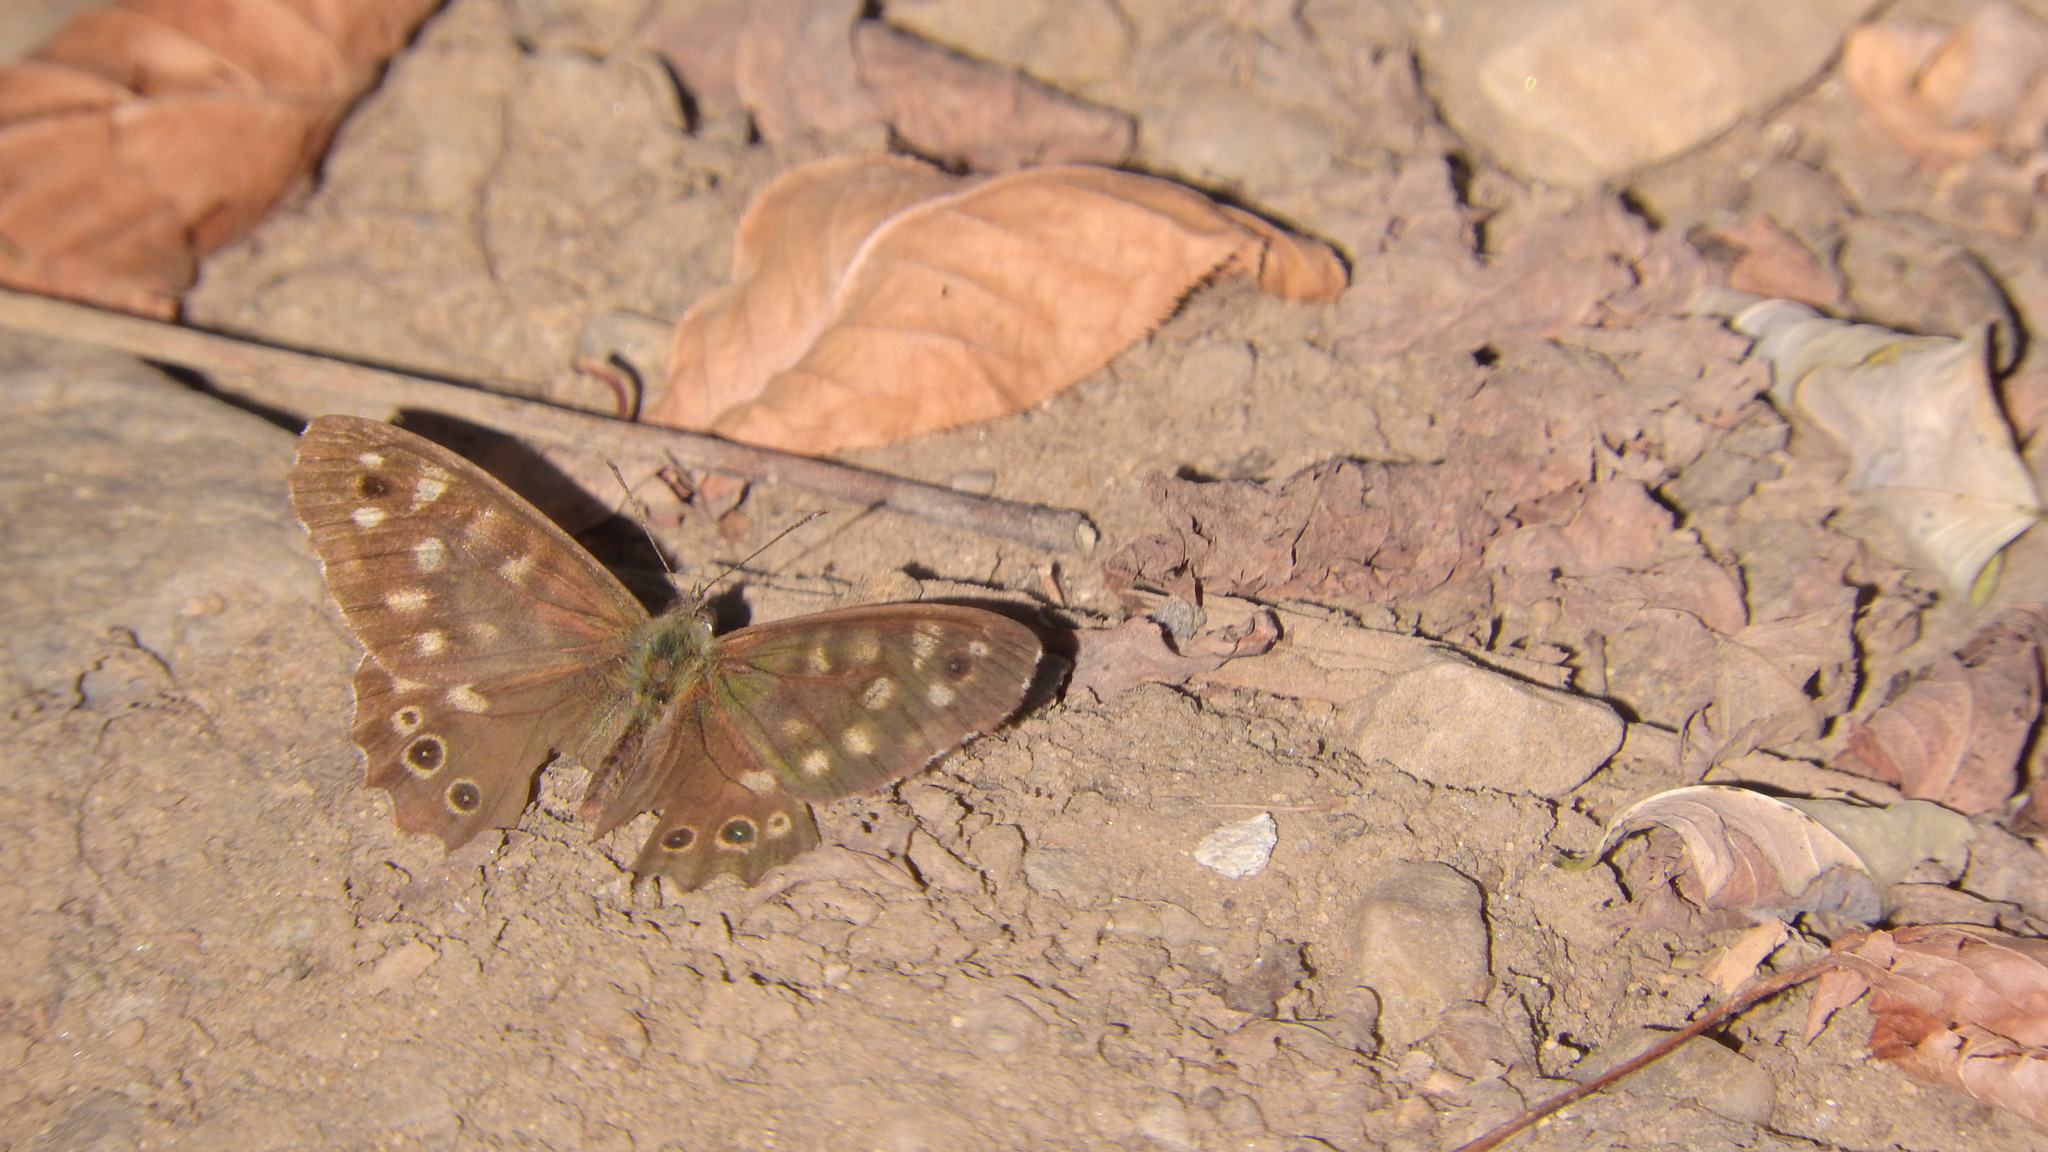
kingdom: Animalia
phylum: Arthropoda
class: Insecta
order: Lepidoptera
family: Nymphalidae
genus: Pararge
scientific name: Pararge aegeria
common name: Speckled wood
